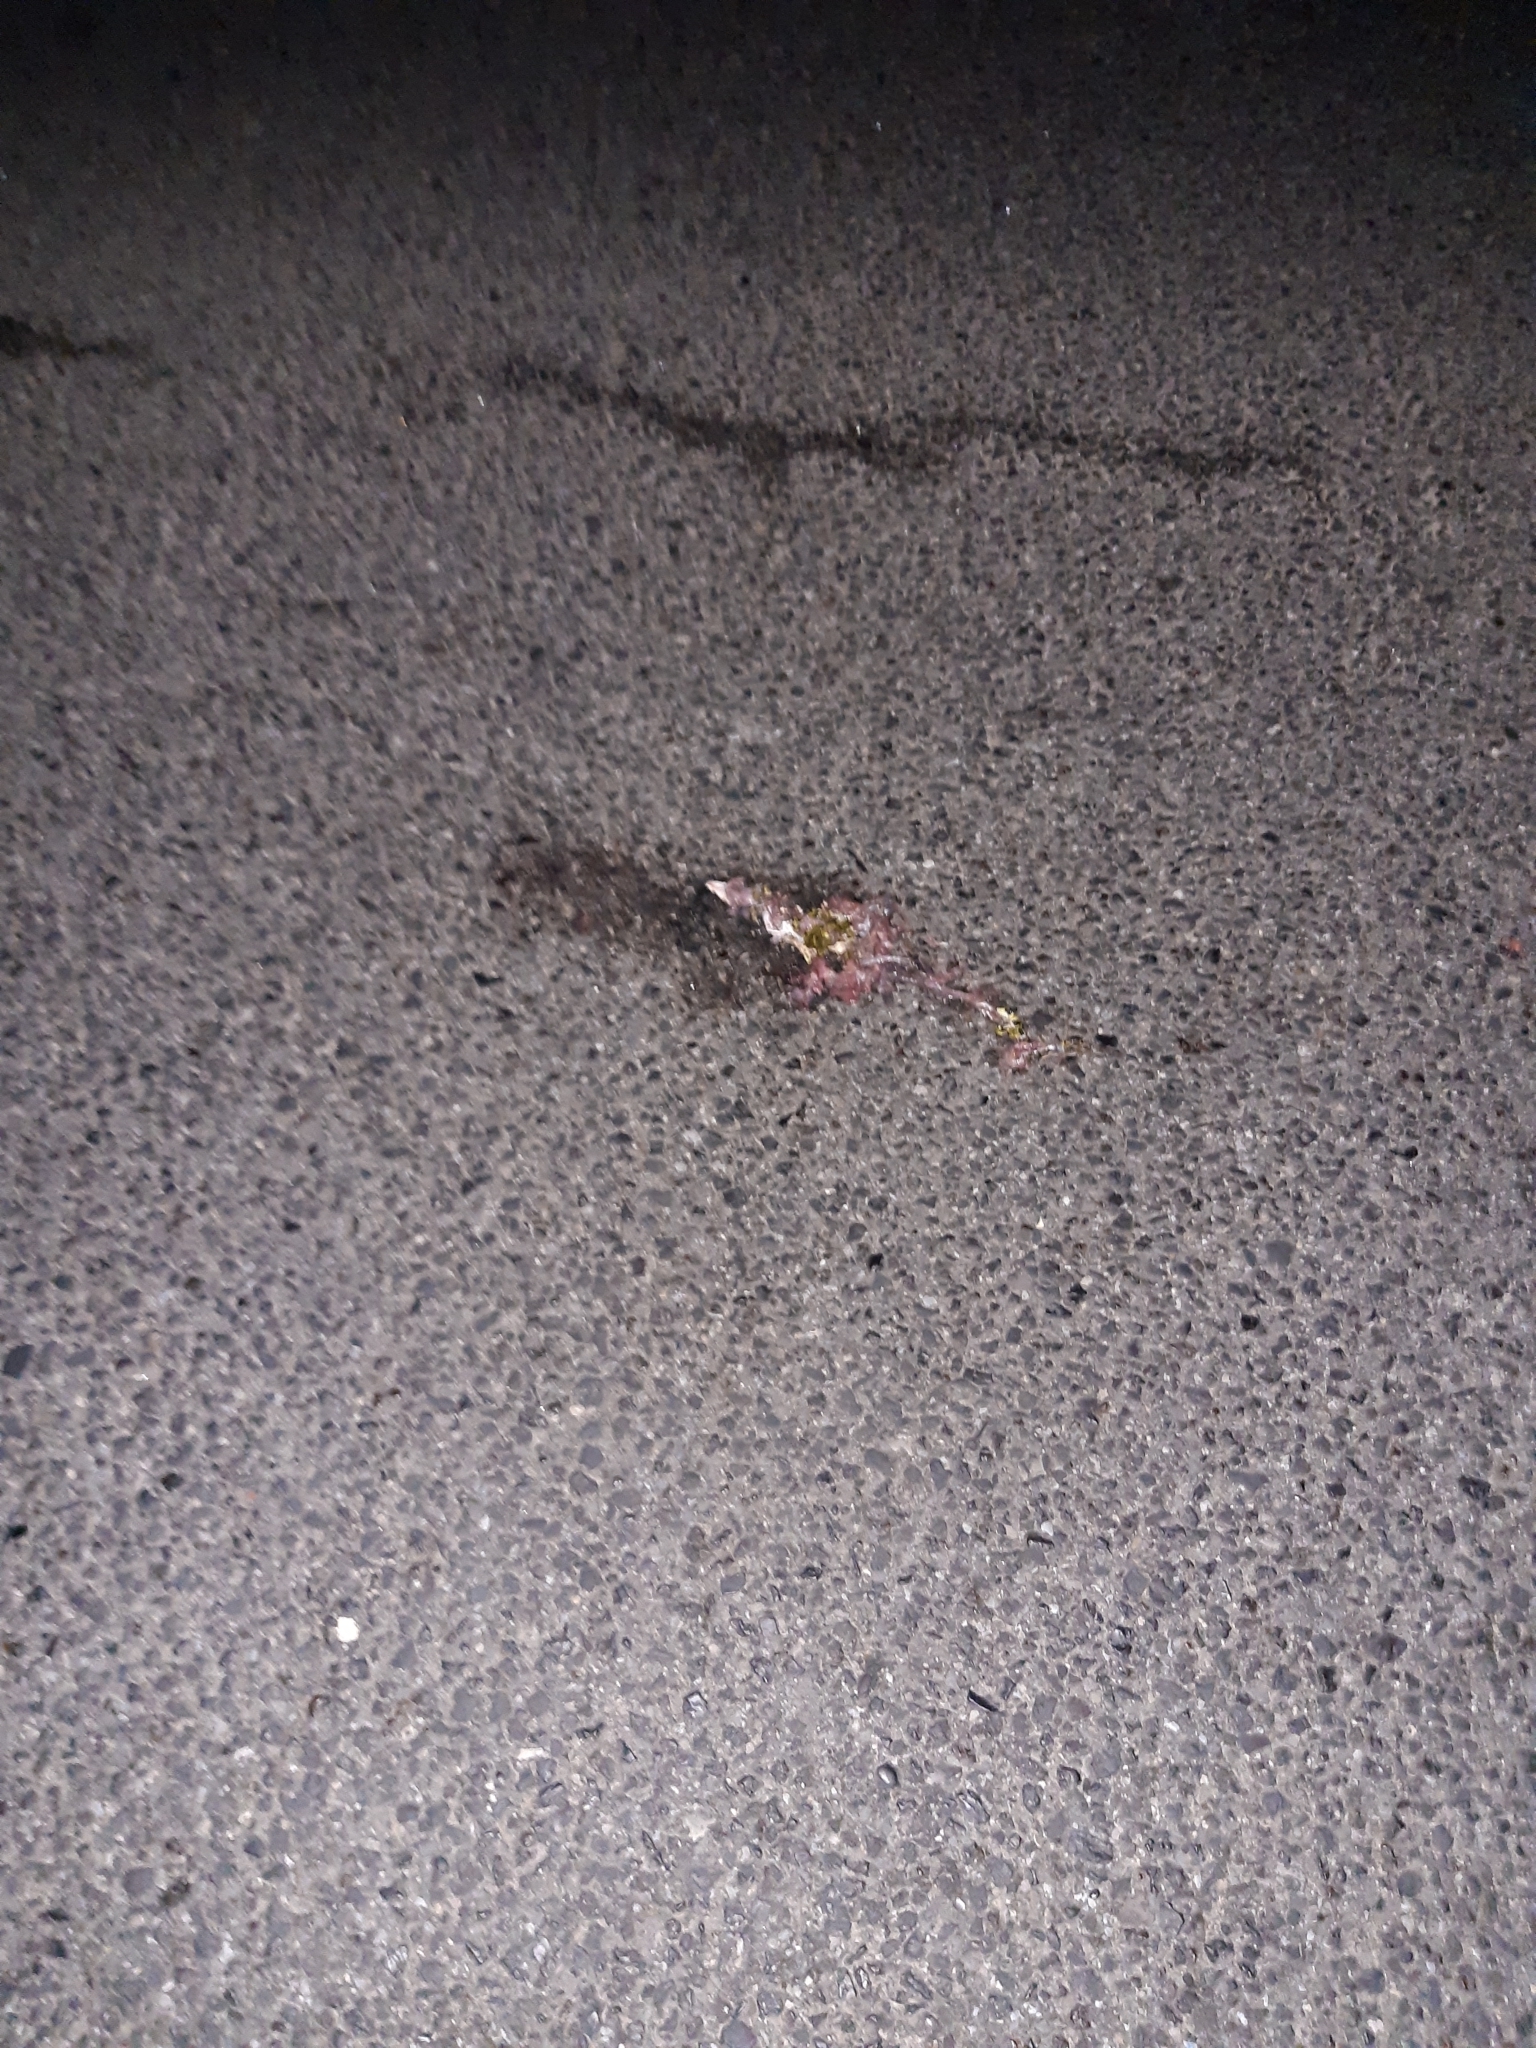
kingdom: Animalia
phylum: Chordata
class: Amphibia
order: Anura
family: Bufonidae
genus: Bufo
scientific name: Bufo bufo
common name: Common toad
